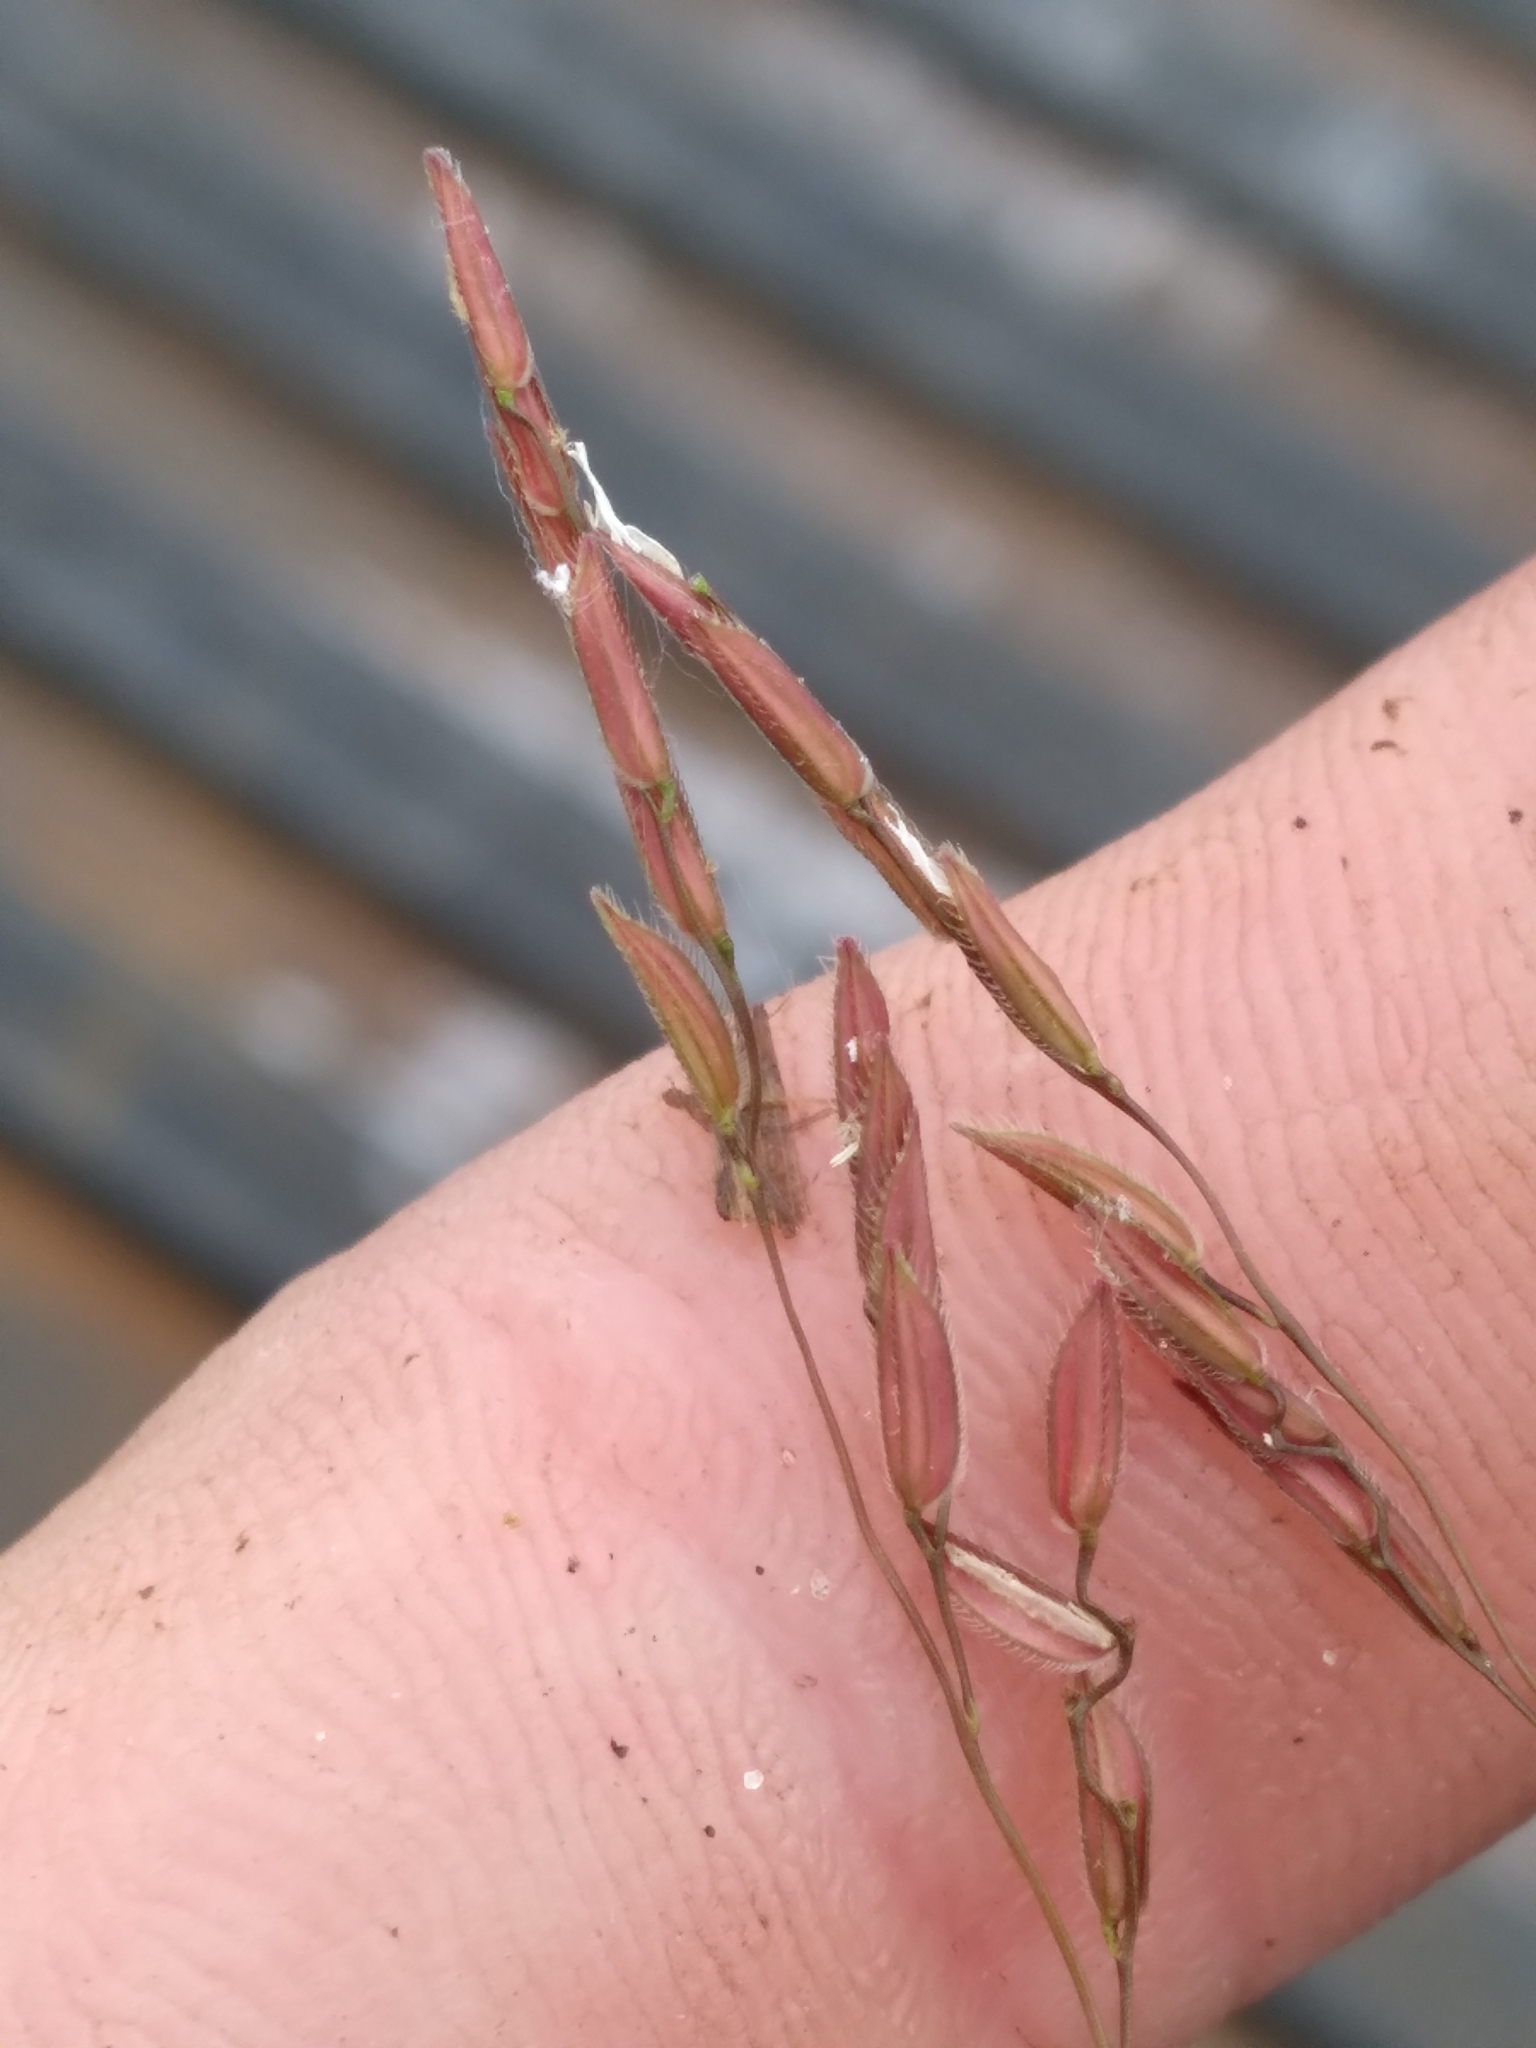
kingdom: Plantae
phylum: Tracheophyta
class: Liliopsida
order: Poales
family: Poaceae
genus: Leersia
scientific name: Leersia hexandra
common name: Southern cut grass
